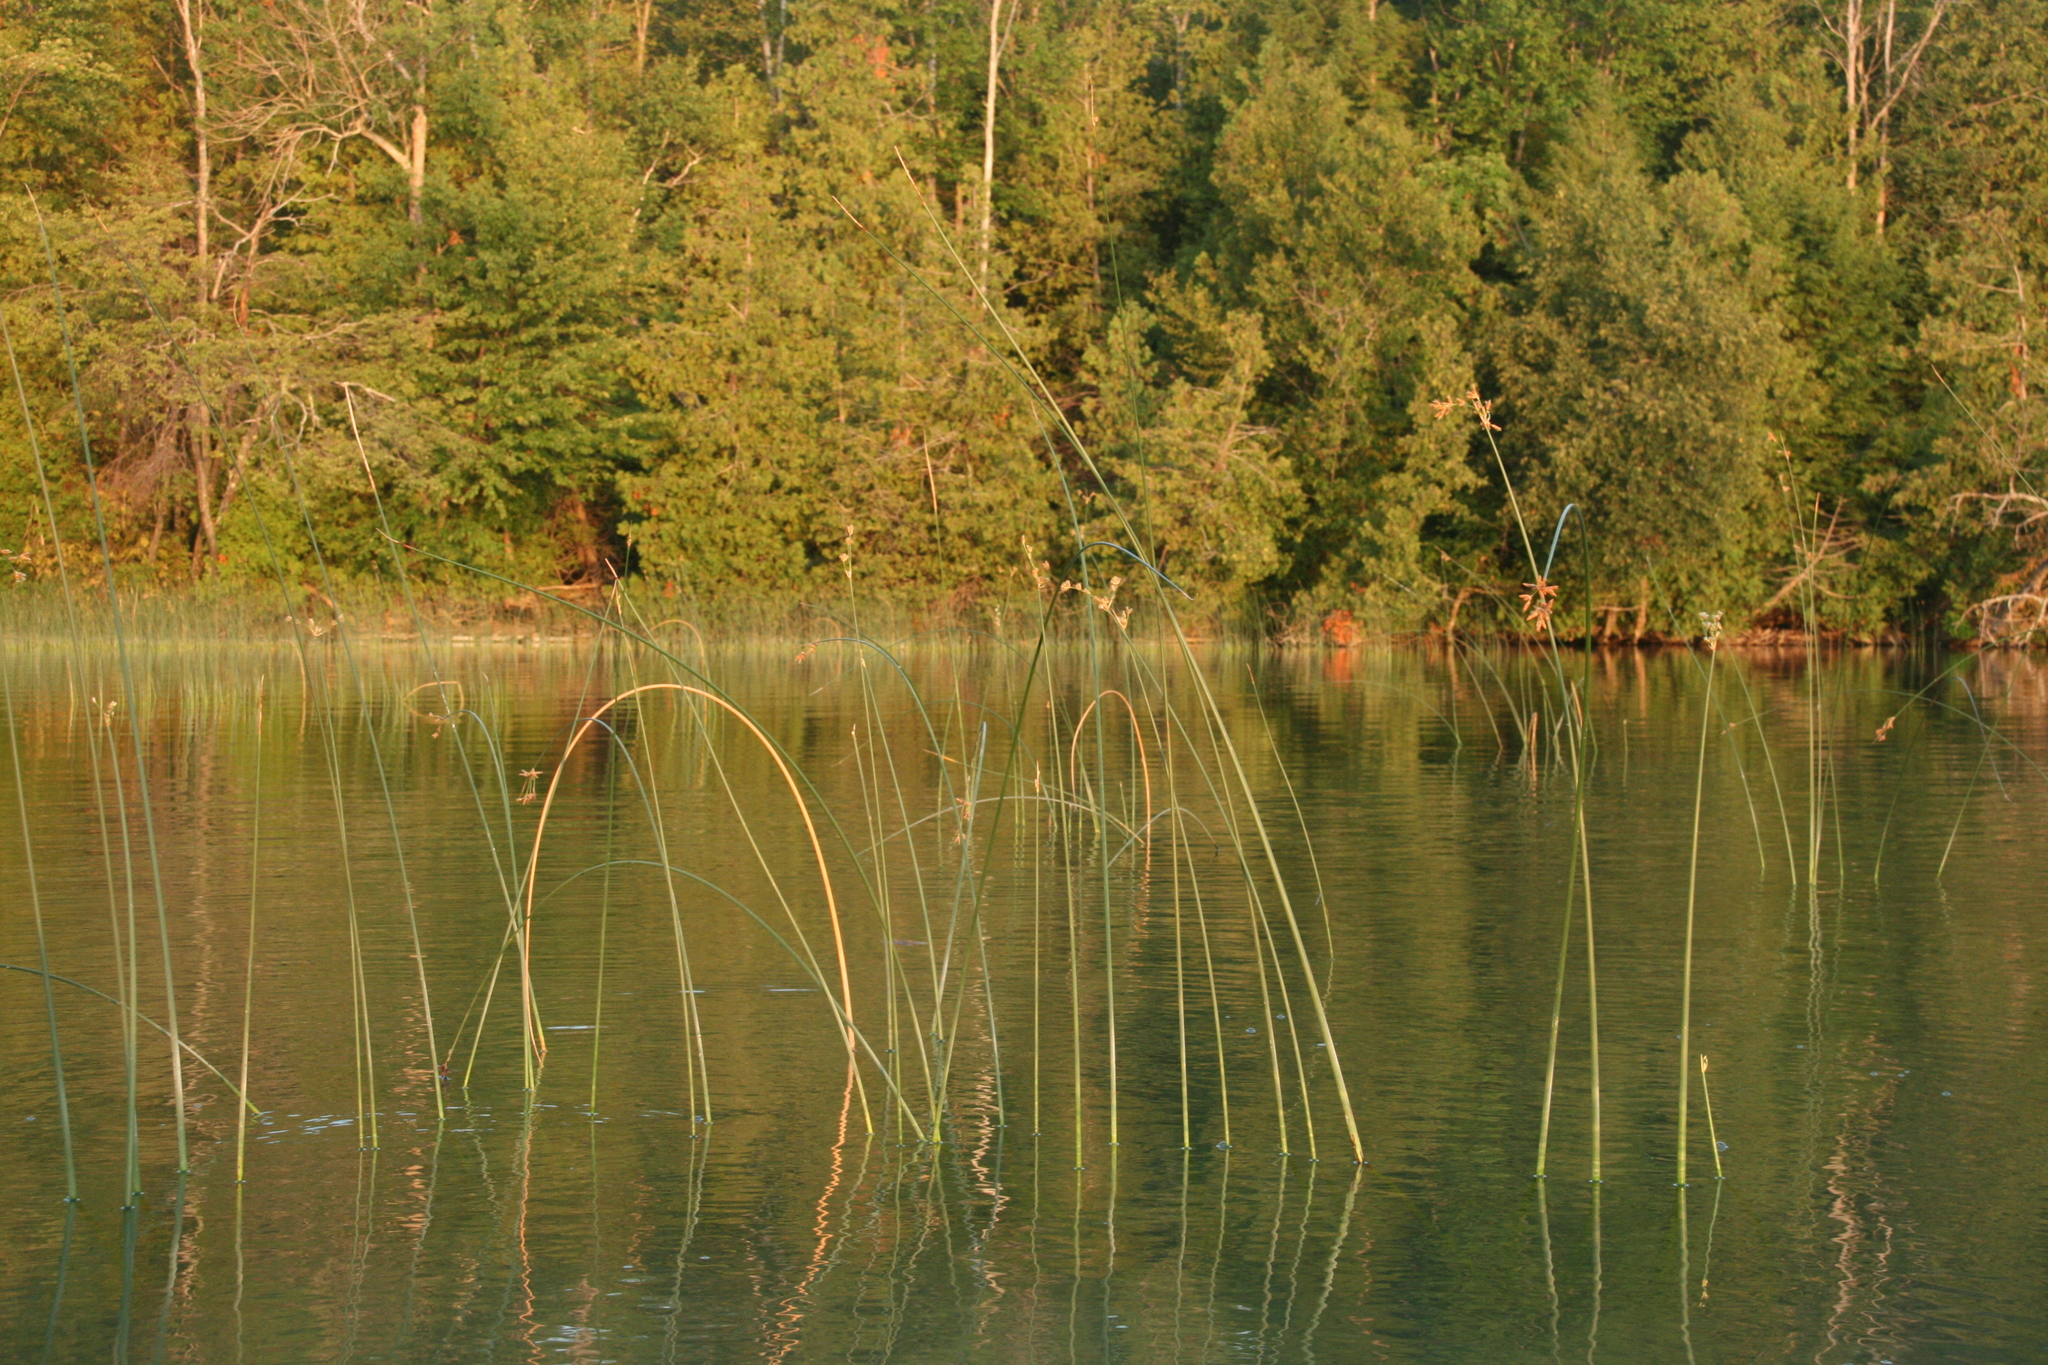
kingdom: Plantae
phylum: Tracheophyta
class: Liliopsida
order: Poales
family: Cyperaceae
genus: Schoenoplectus
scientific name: Schoenoplectus acutus
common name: Hardstem bulrush
